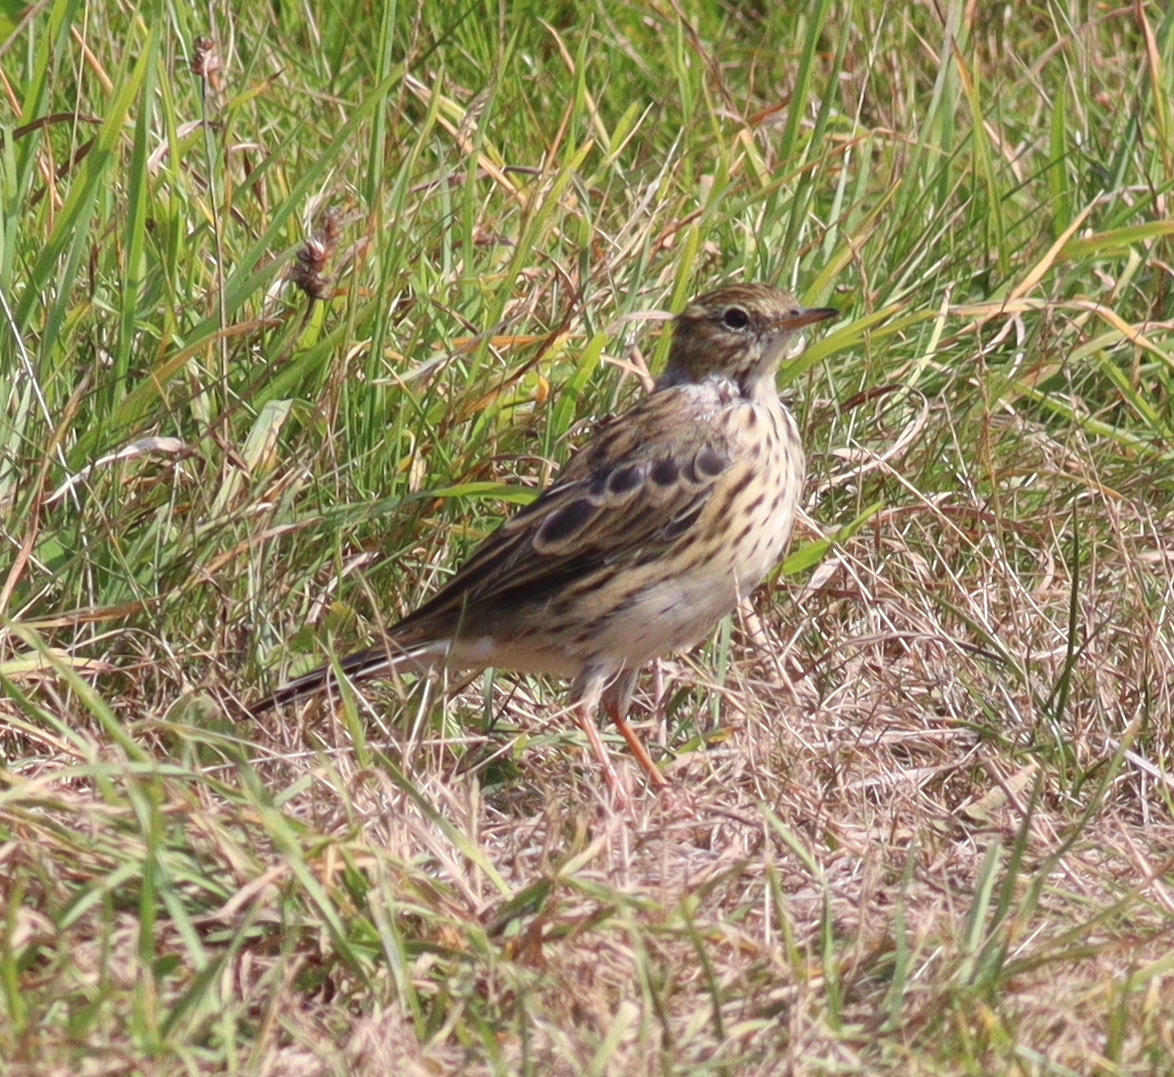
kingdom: Animalia
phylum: Chordata
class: Aves
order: Passeriformes
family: Motacillidae
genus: Anthus
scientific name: Anthus pratensis
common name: Meadow pipit
